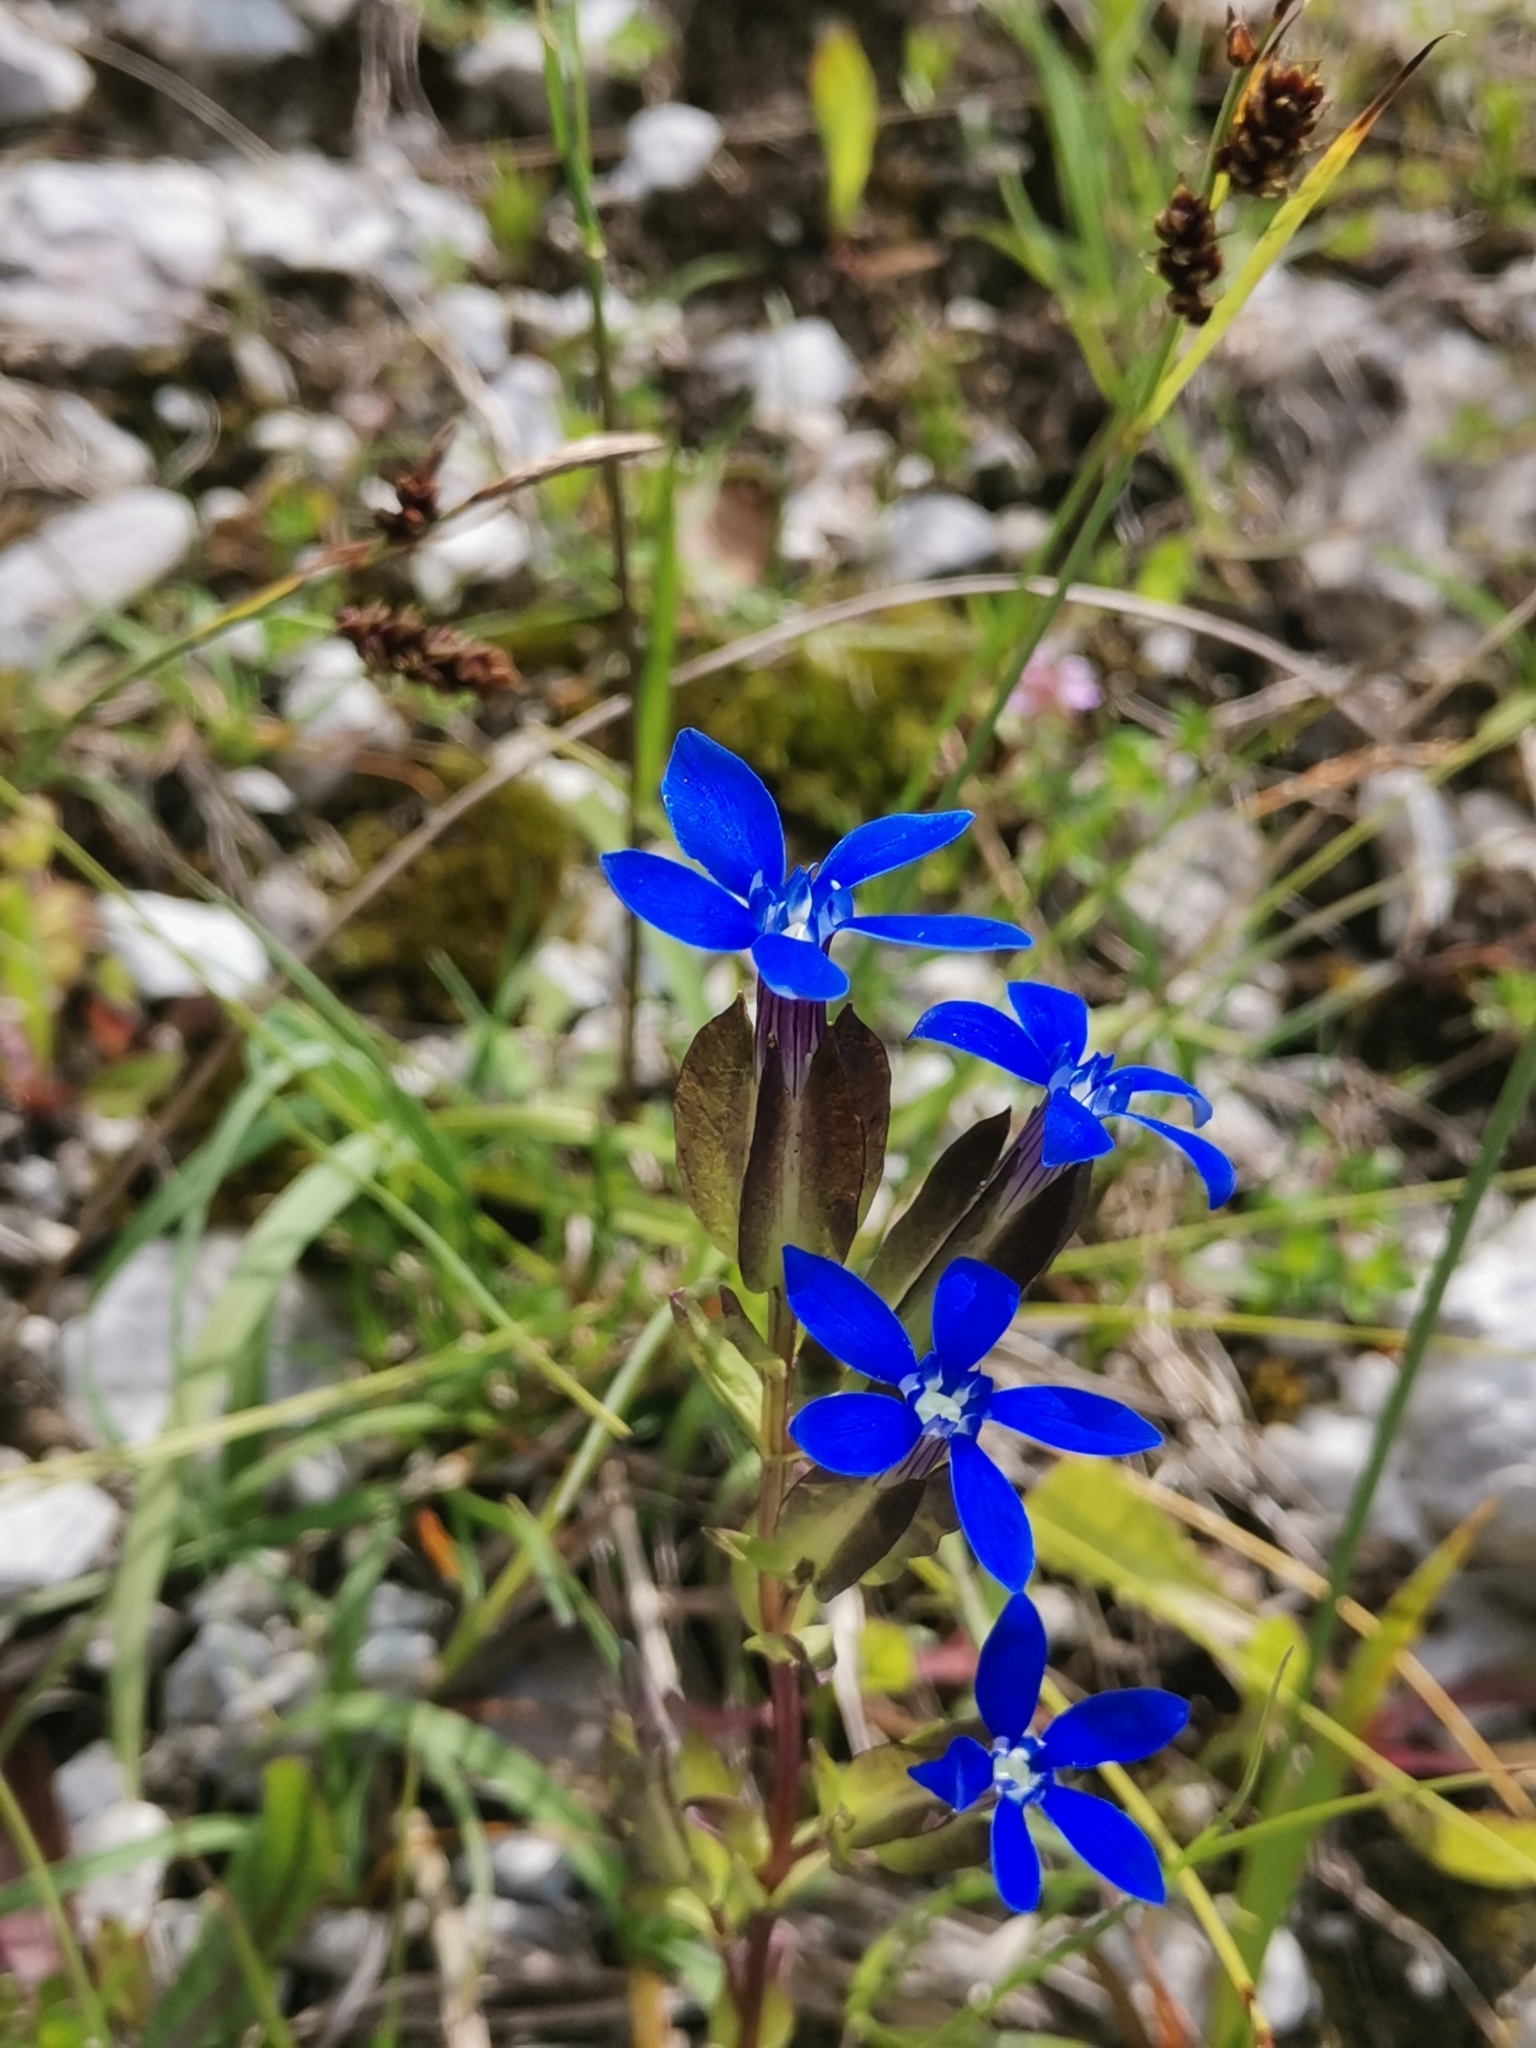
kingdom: Plantae
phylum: Tracheophyta
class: Magnoliopsida
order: Gentianales
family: Gentianaceae
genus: Gentiana
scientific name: Gentiana utriculosa
